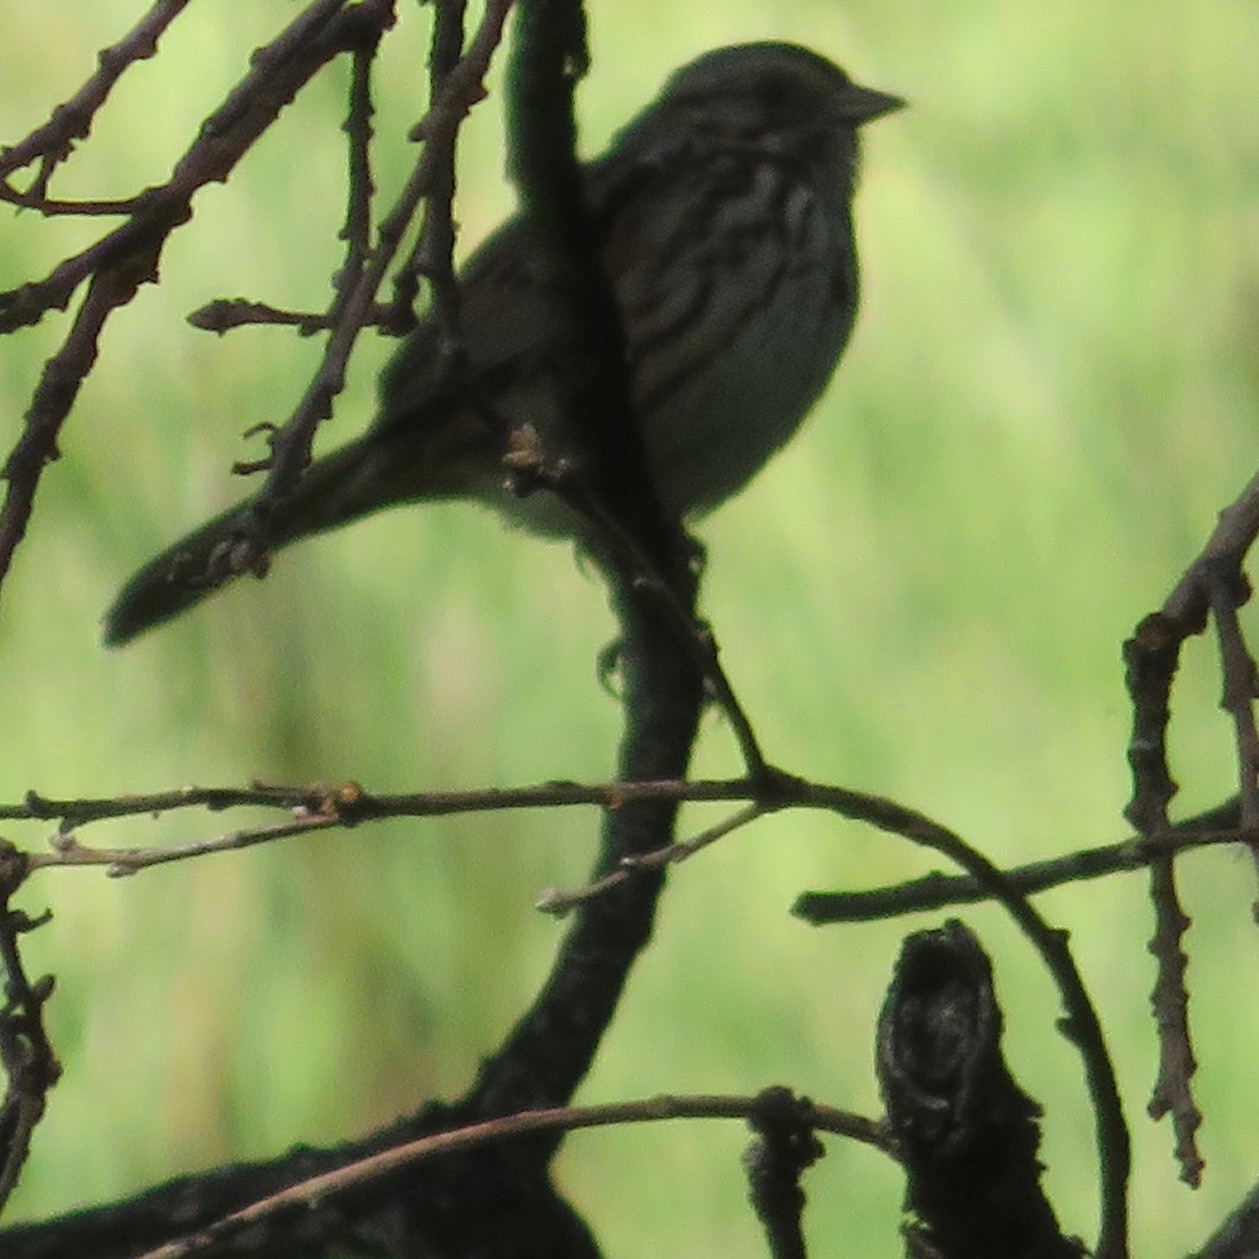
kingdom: Animalia
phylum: Chordata
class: Aves
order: Passeriformes
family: Passerellidae
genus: Melospiza
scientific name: Melospiza melodia
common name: Song sparrow
